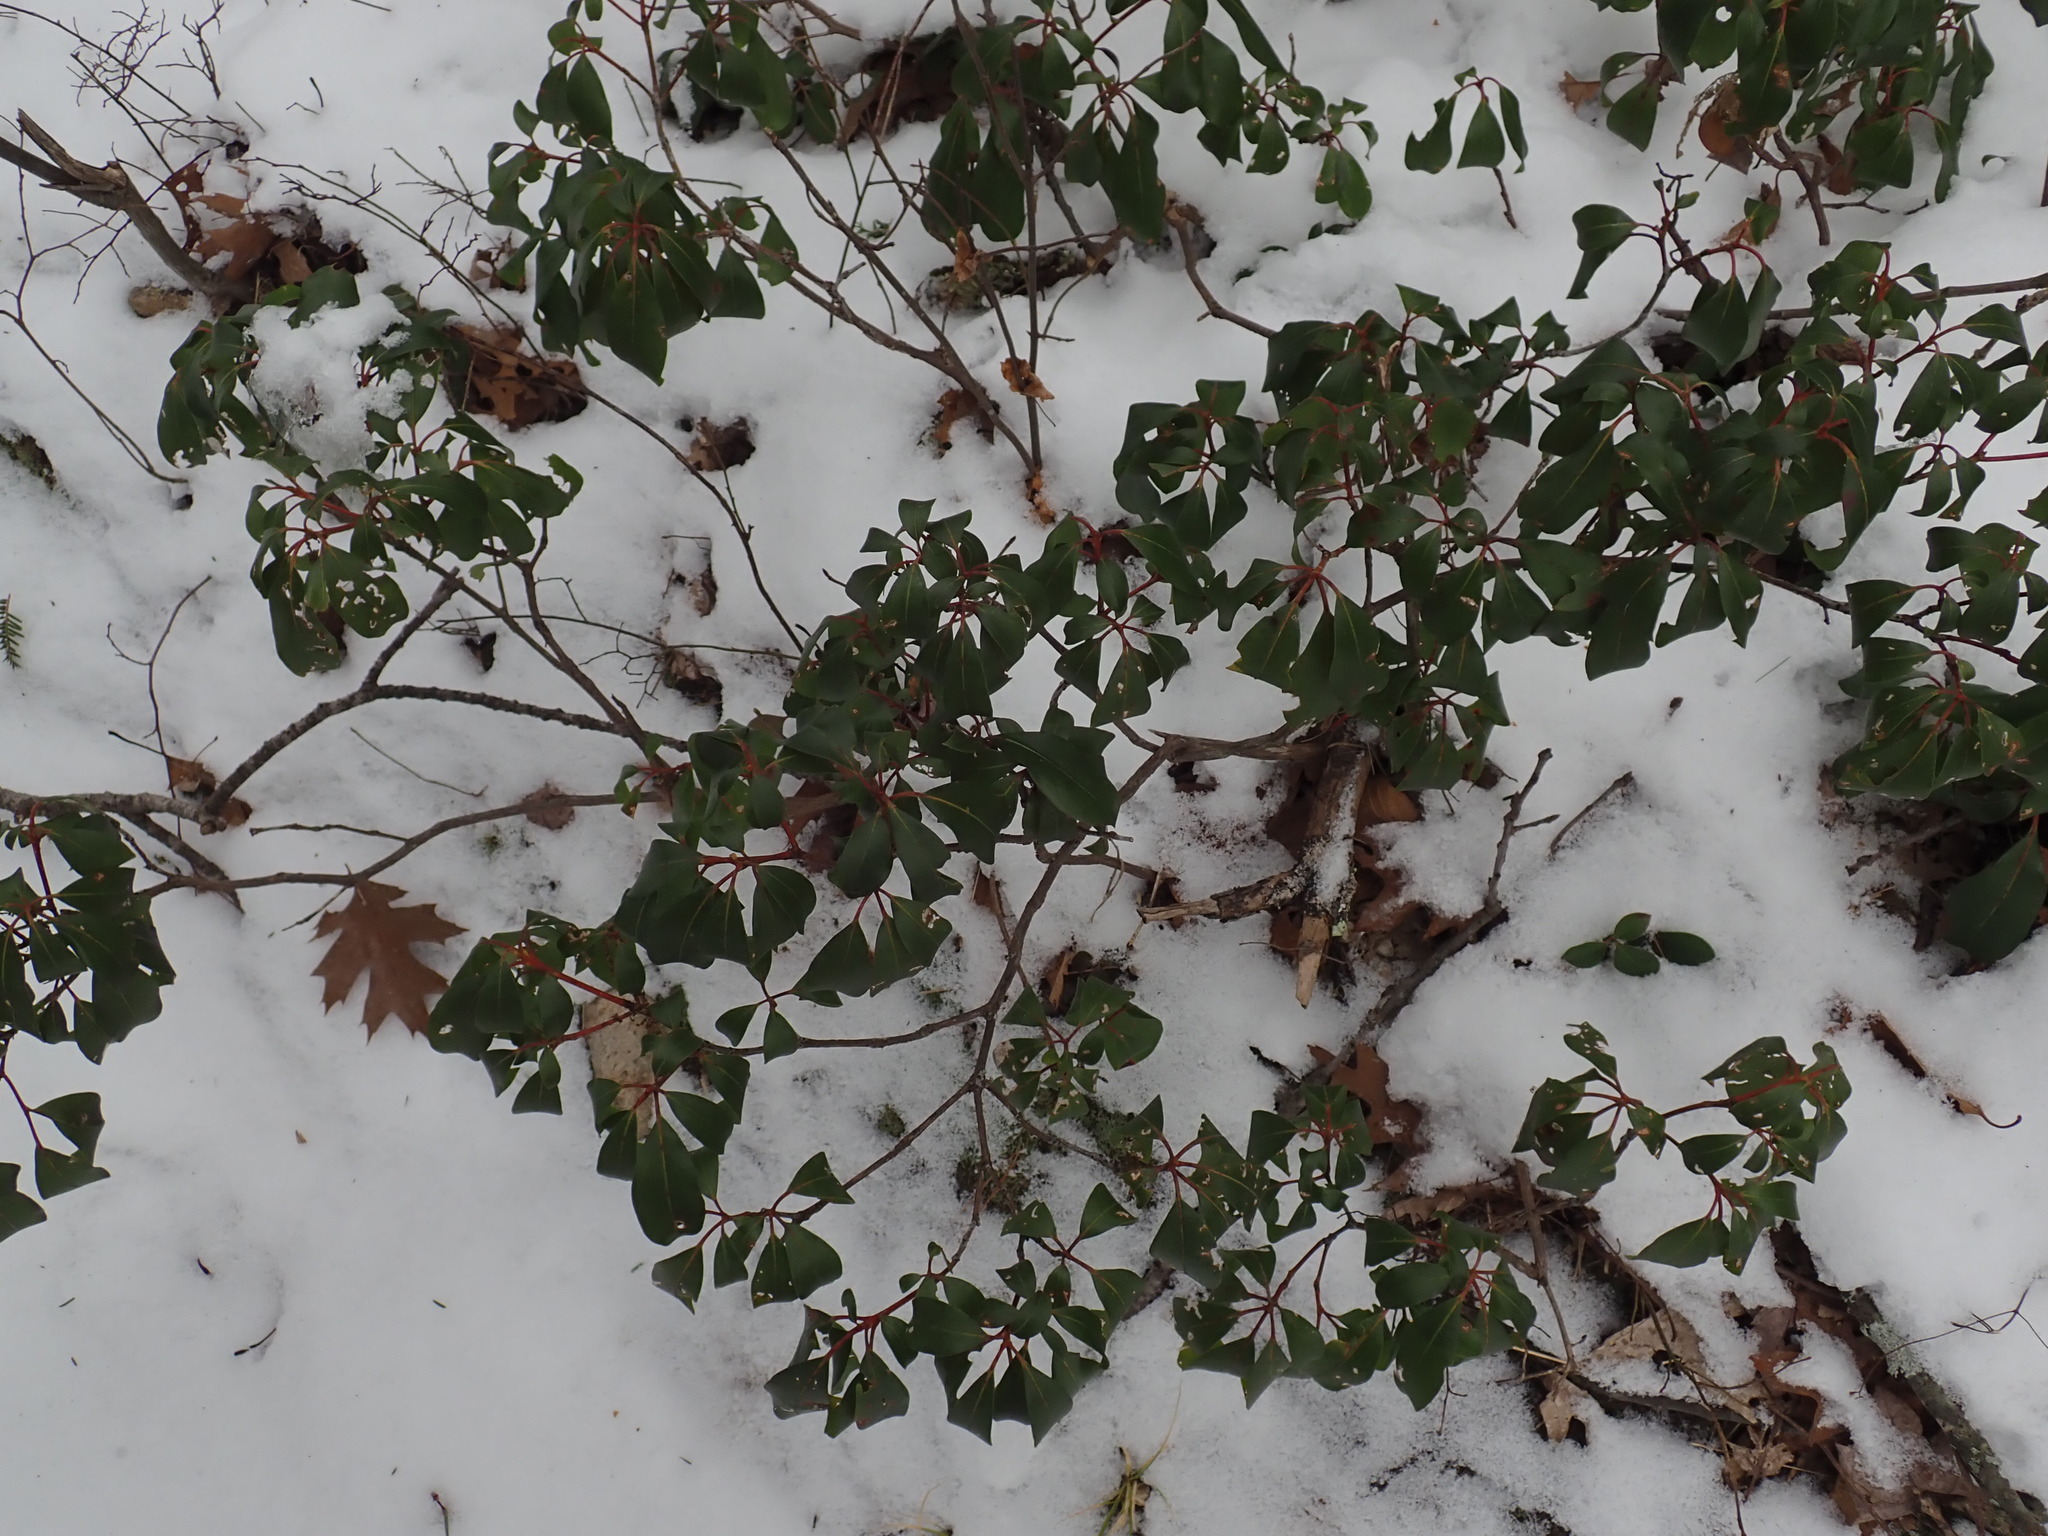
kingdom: Plantae
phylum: Tracheophyta
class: Magnoliopsida
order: Ericales
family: Ericaceae
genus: Kalmia
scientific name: Kalmia latifolia
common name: Mountain-laurel
